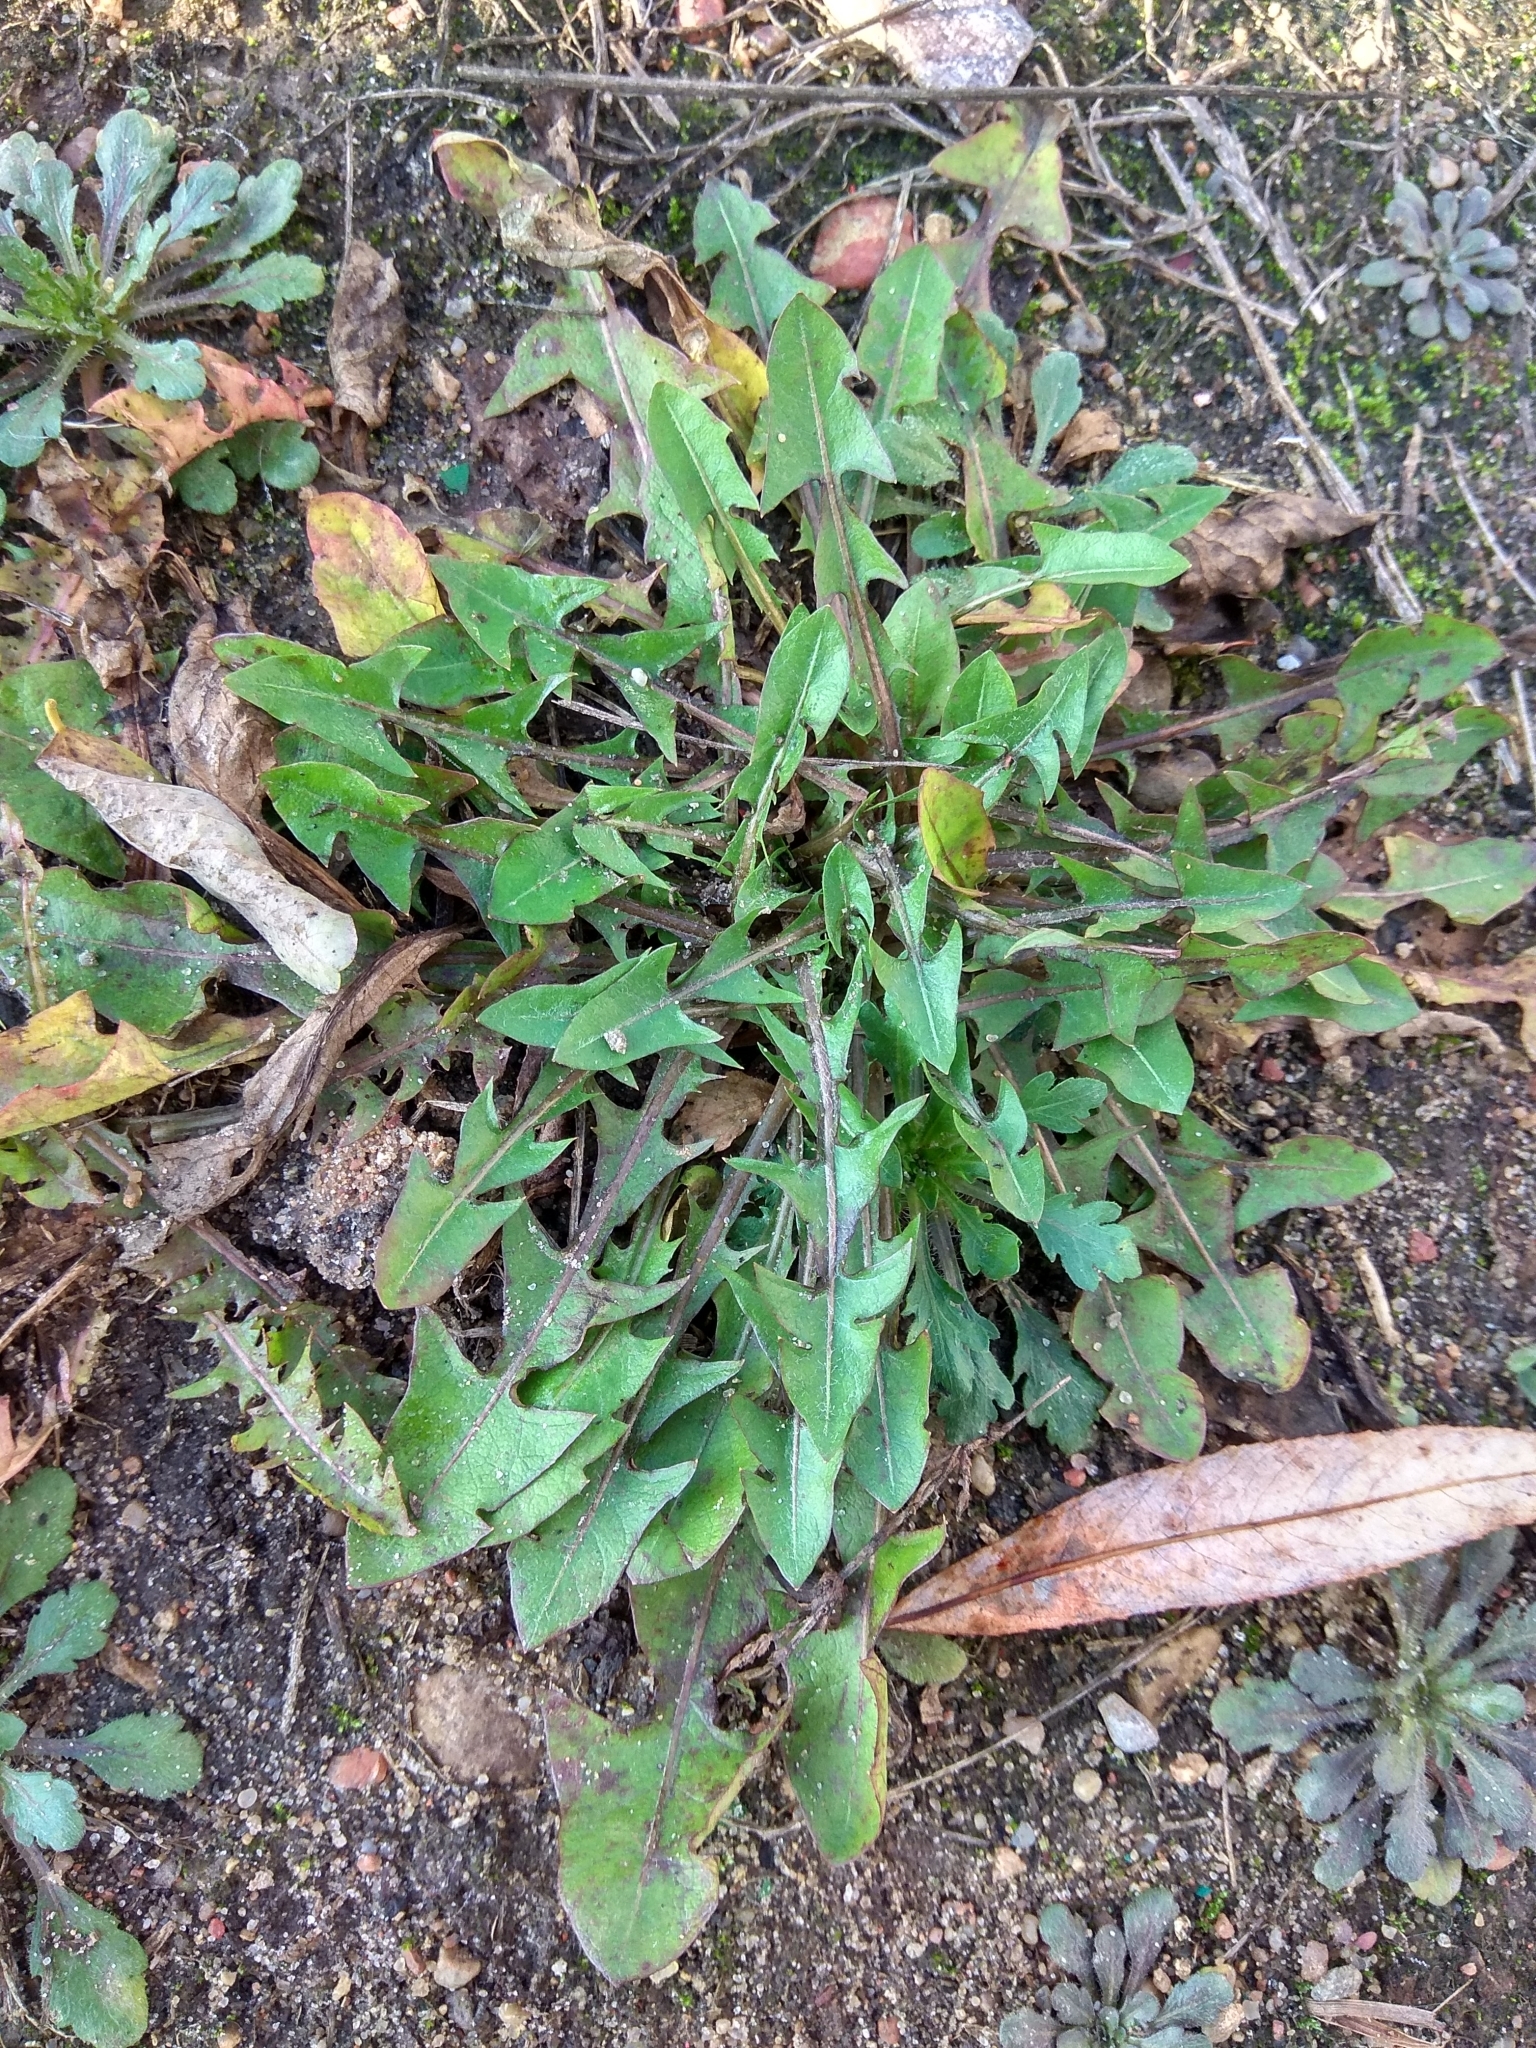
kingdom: Plantae
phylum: Tracheophyta
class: Magnoliopsida
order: Asterales
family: Asteraceae
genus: Taraxacum
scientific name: Taraxacum officinale
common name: Common dandelion
